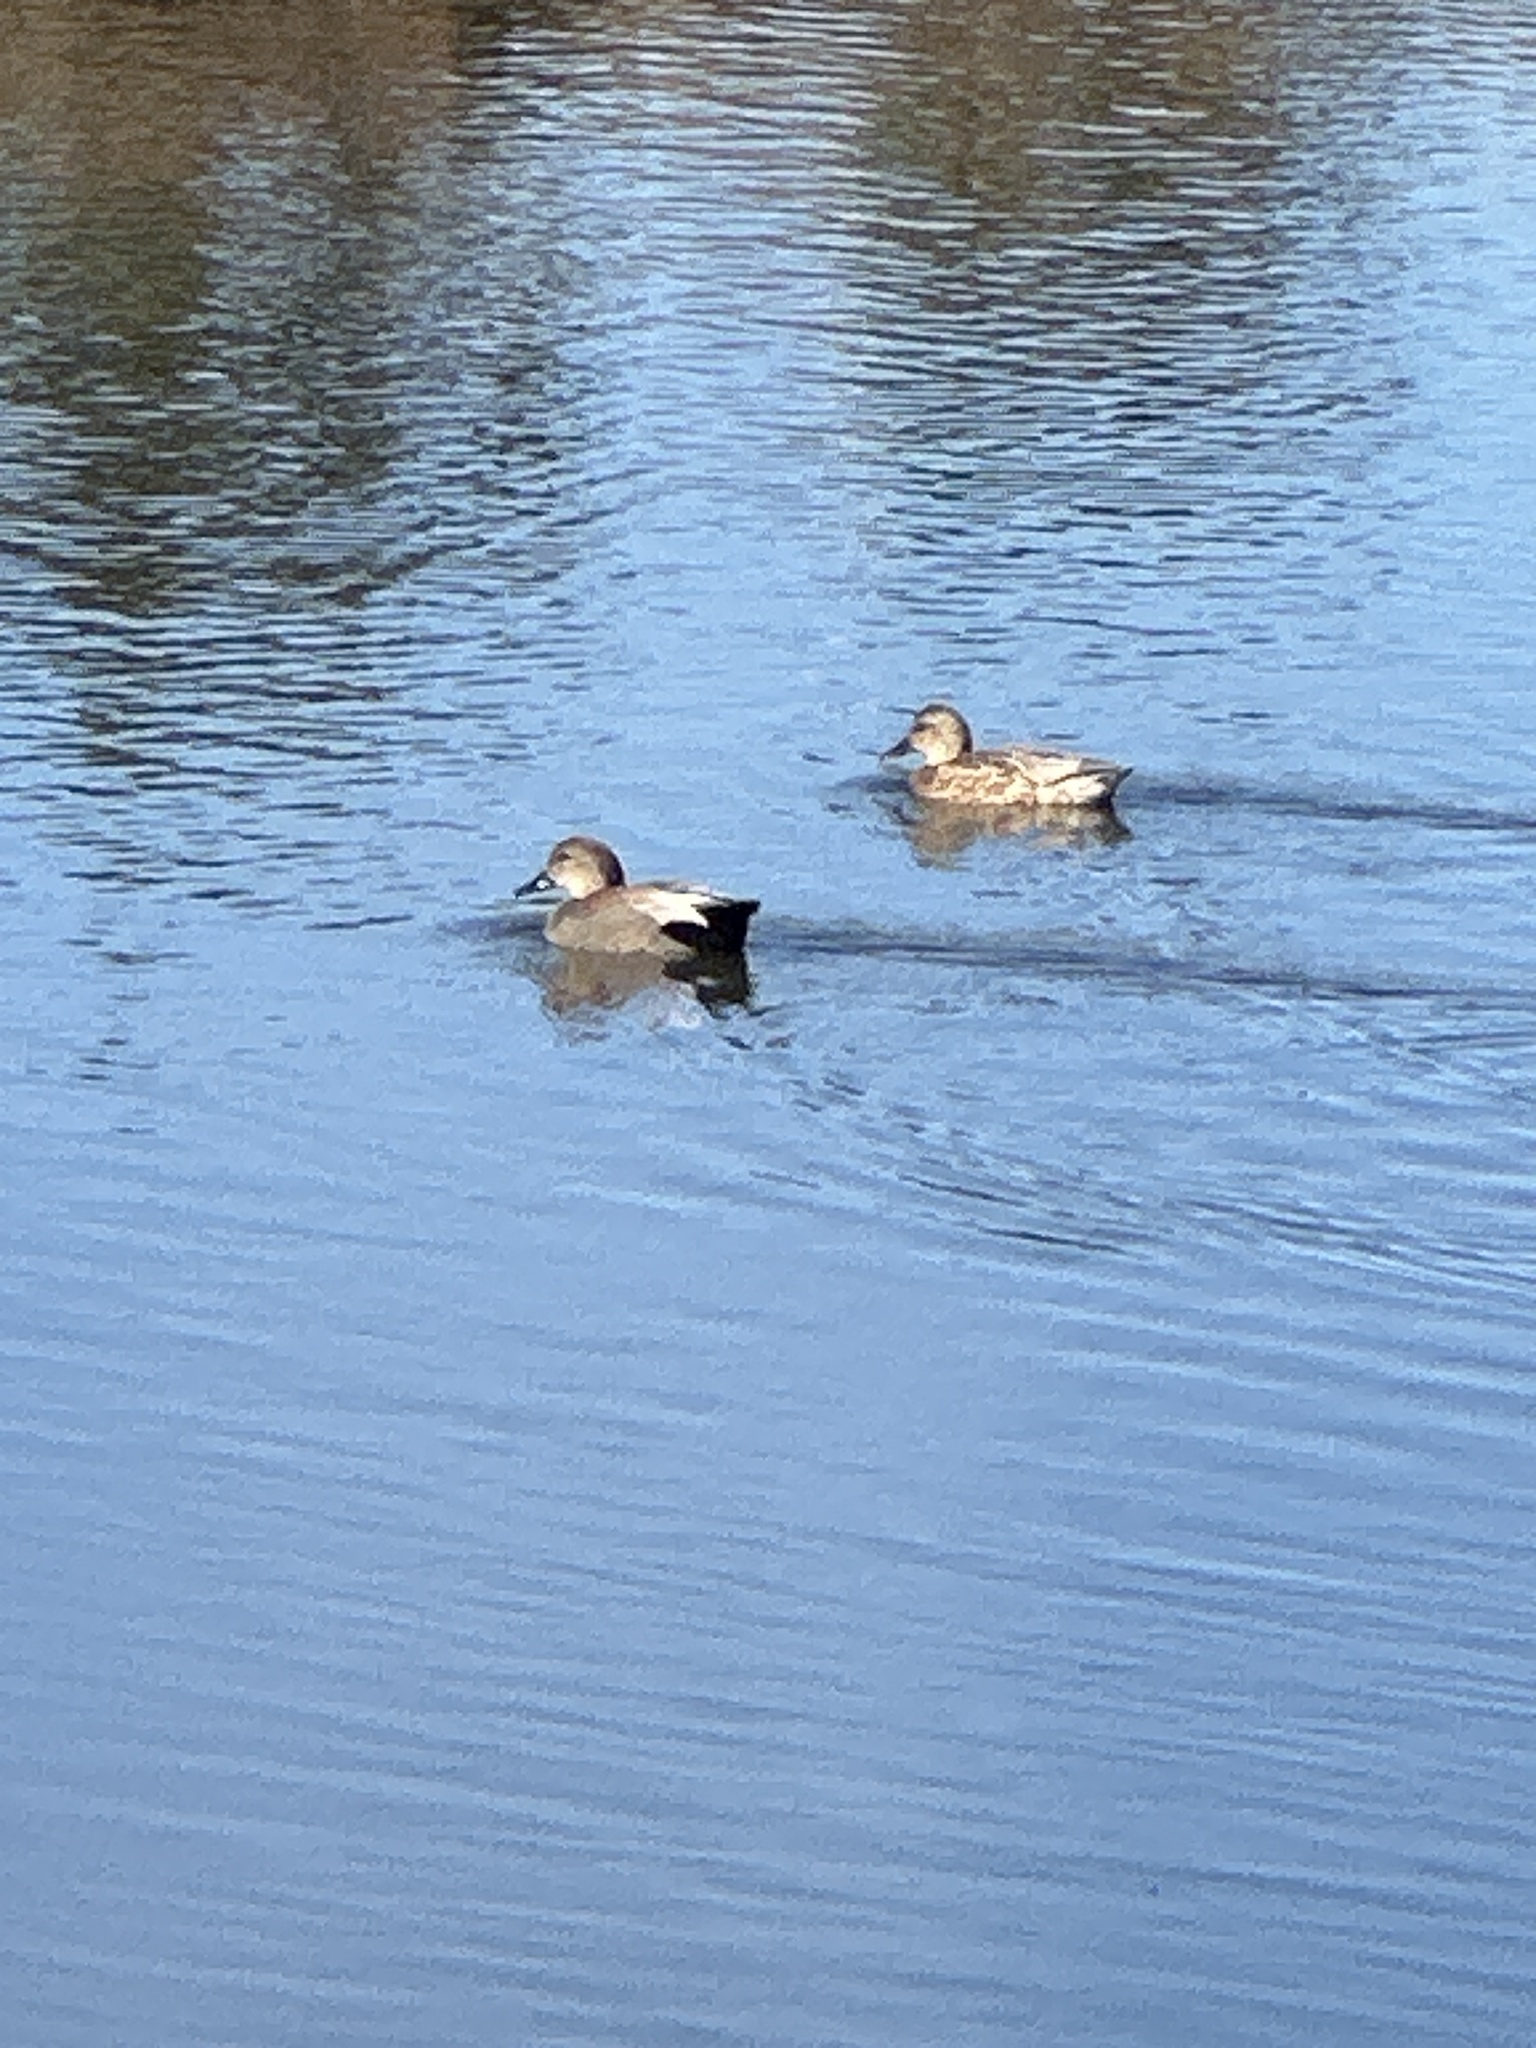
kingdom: Animalia
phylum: Chordata
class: Aves
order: Anseriformes
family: Anatidae
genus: Mareca
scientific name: Mareca strepera
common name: Gadwall
